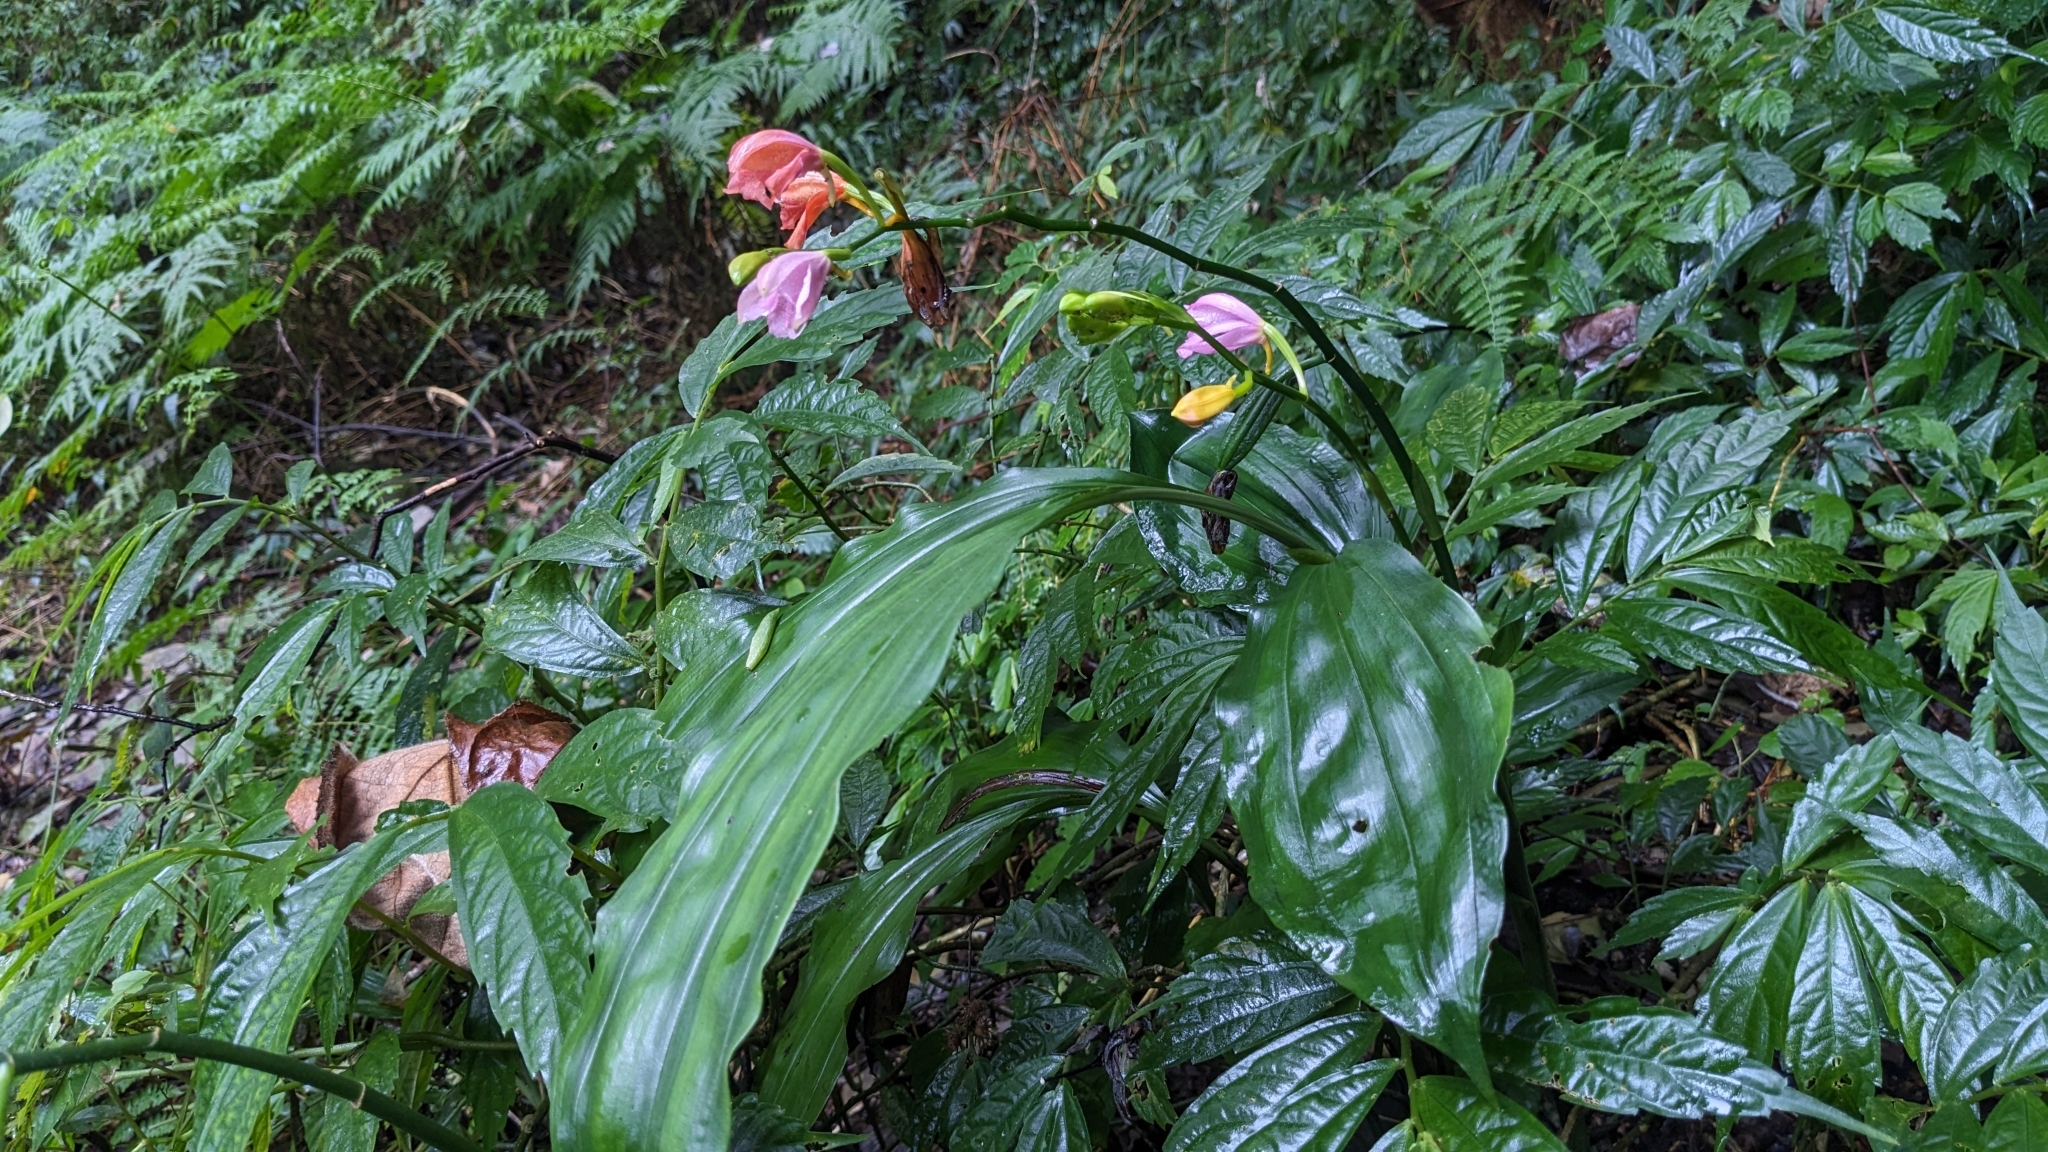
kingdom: Plantae
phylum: Tracheophyta
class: Liliopsida
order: Asparagales
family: Orchidaceae
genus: Calanthe
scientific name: Calanthe mishmensis
